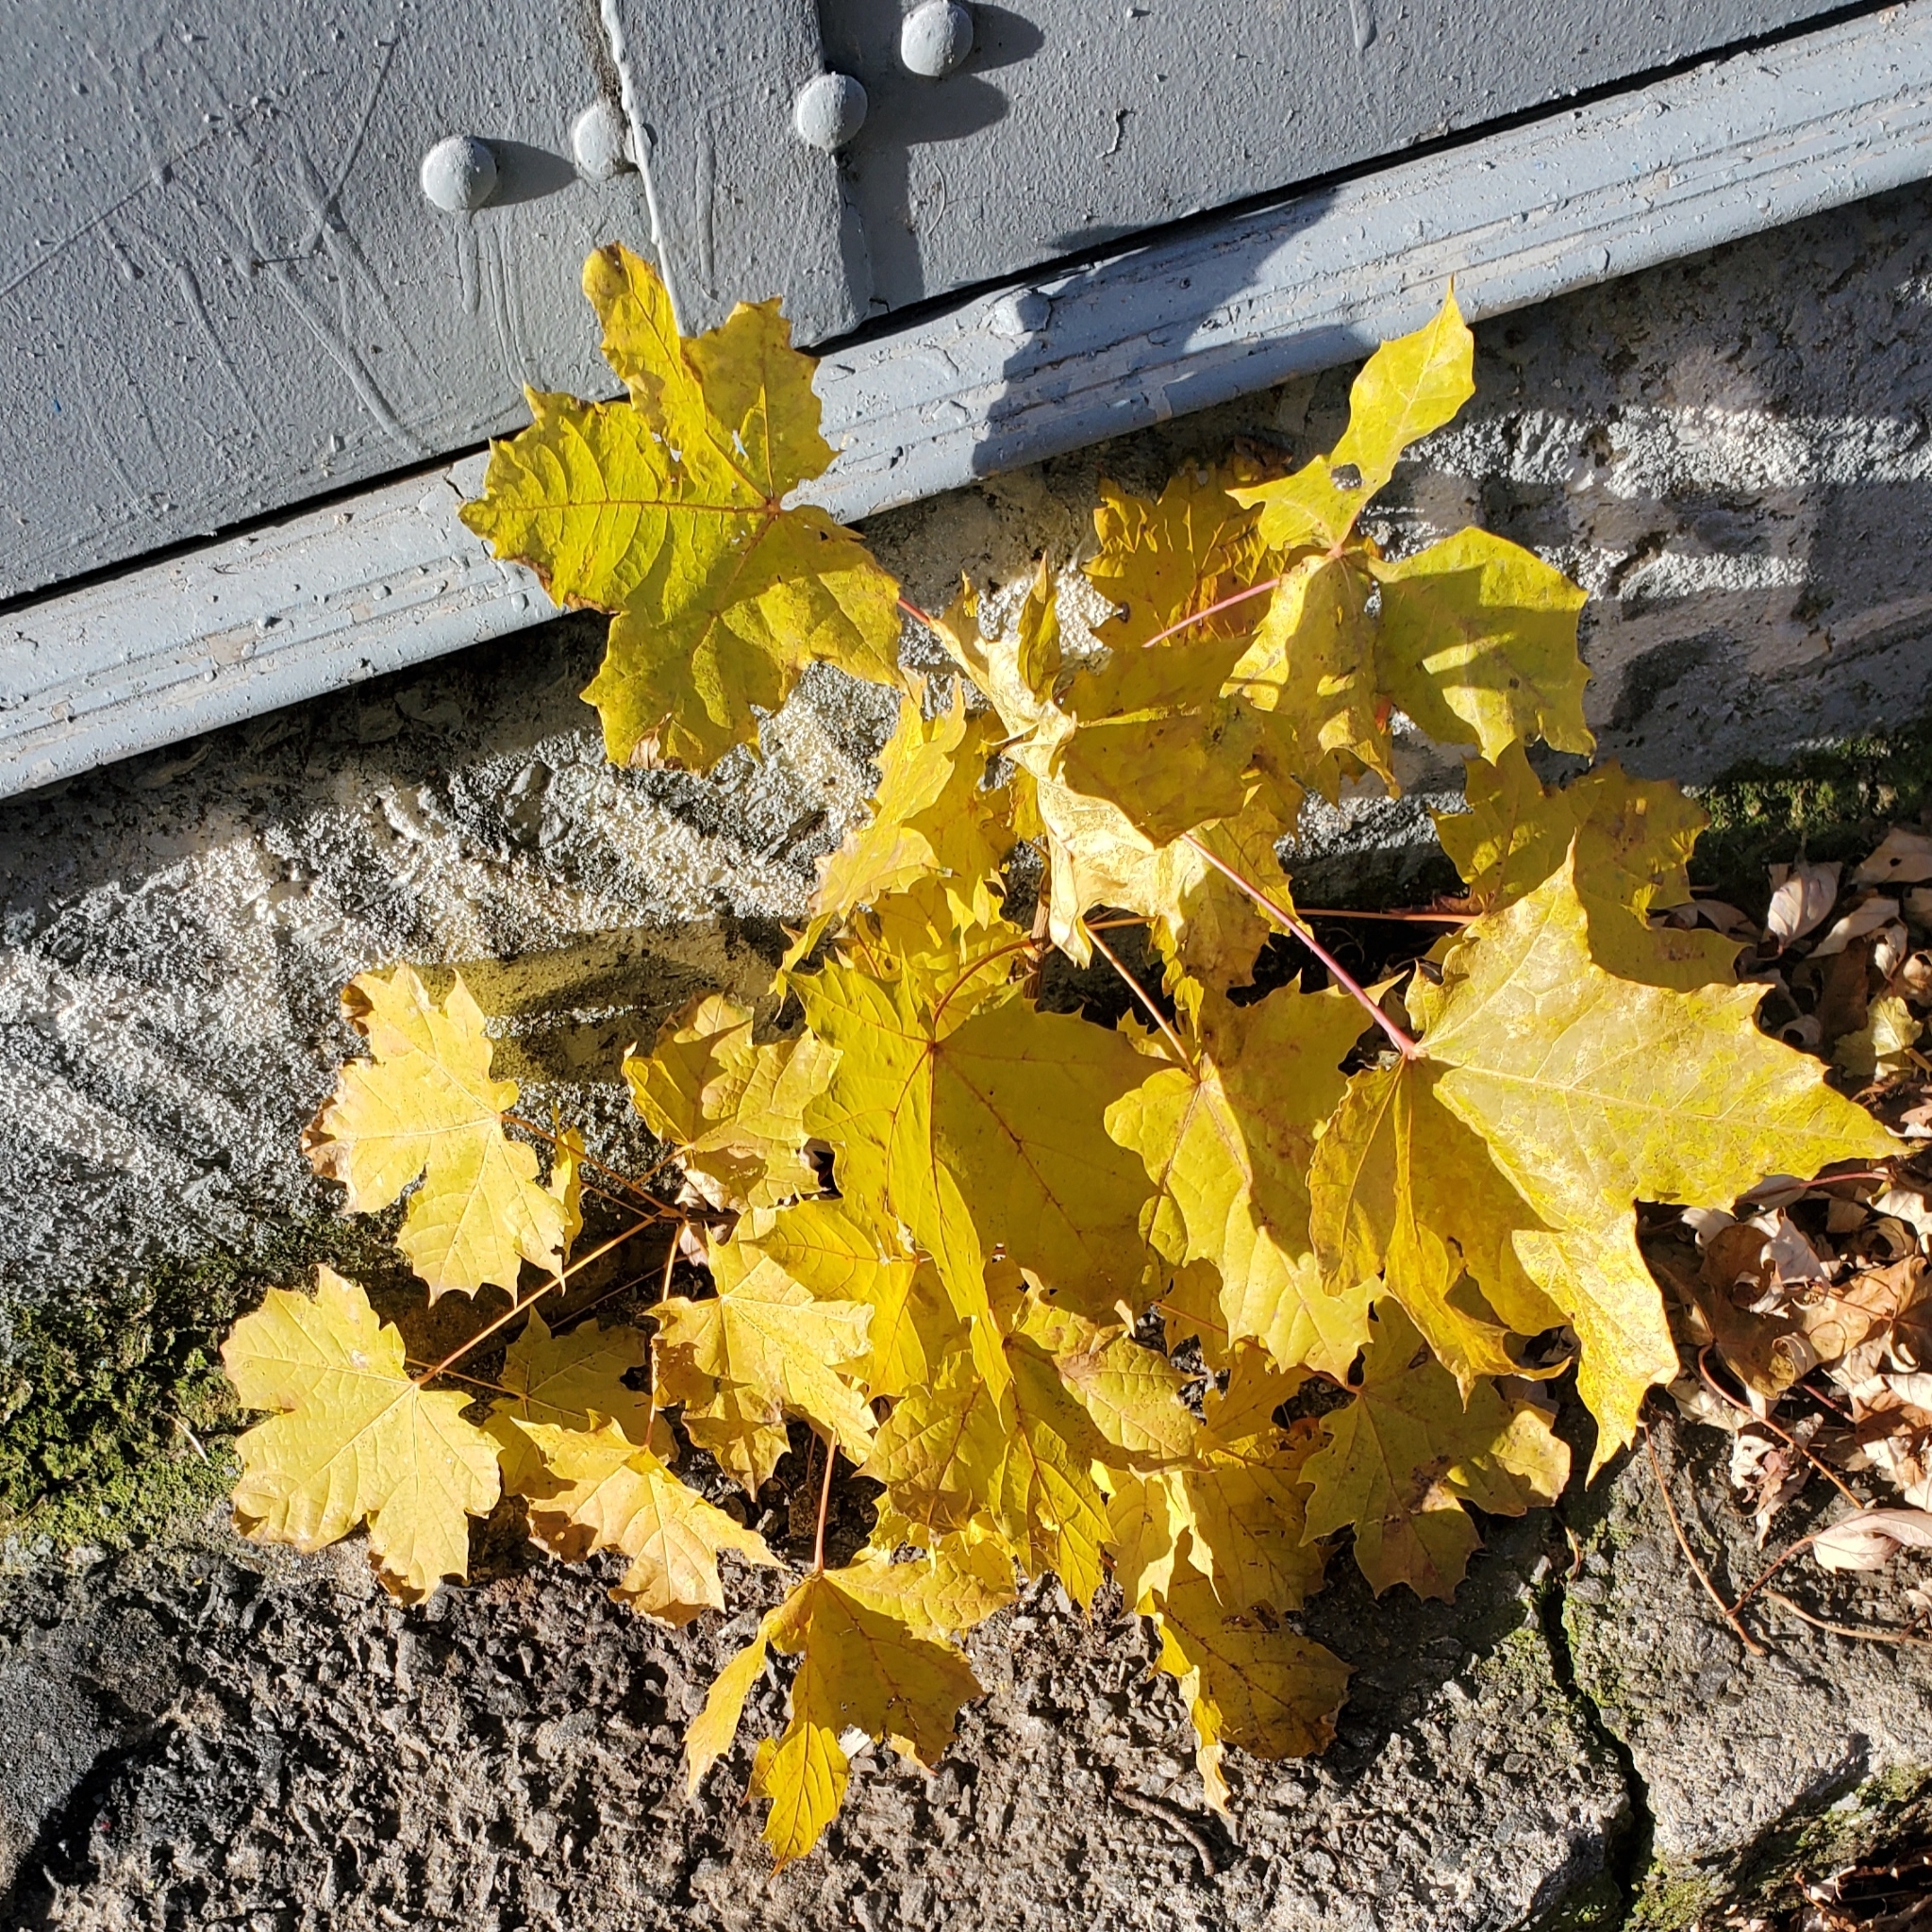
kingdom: Plantae
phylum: Tracheophyta
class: Magnoliopsida
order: Sapindales
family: Sapindaceae
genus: Acer
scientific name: Acer platanoides
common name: Norway maple
